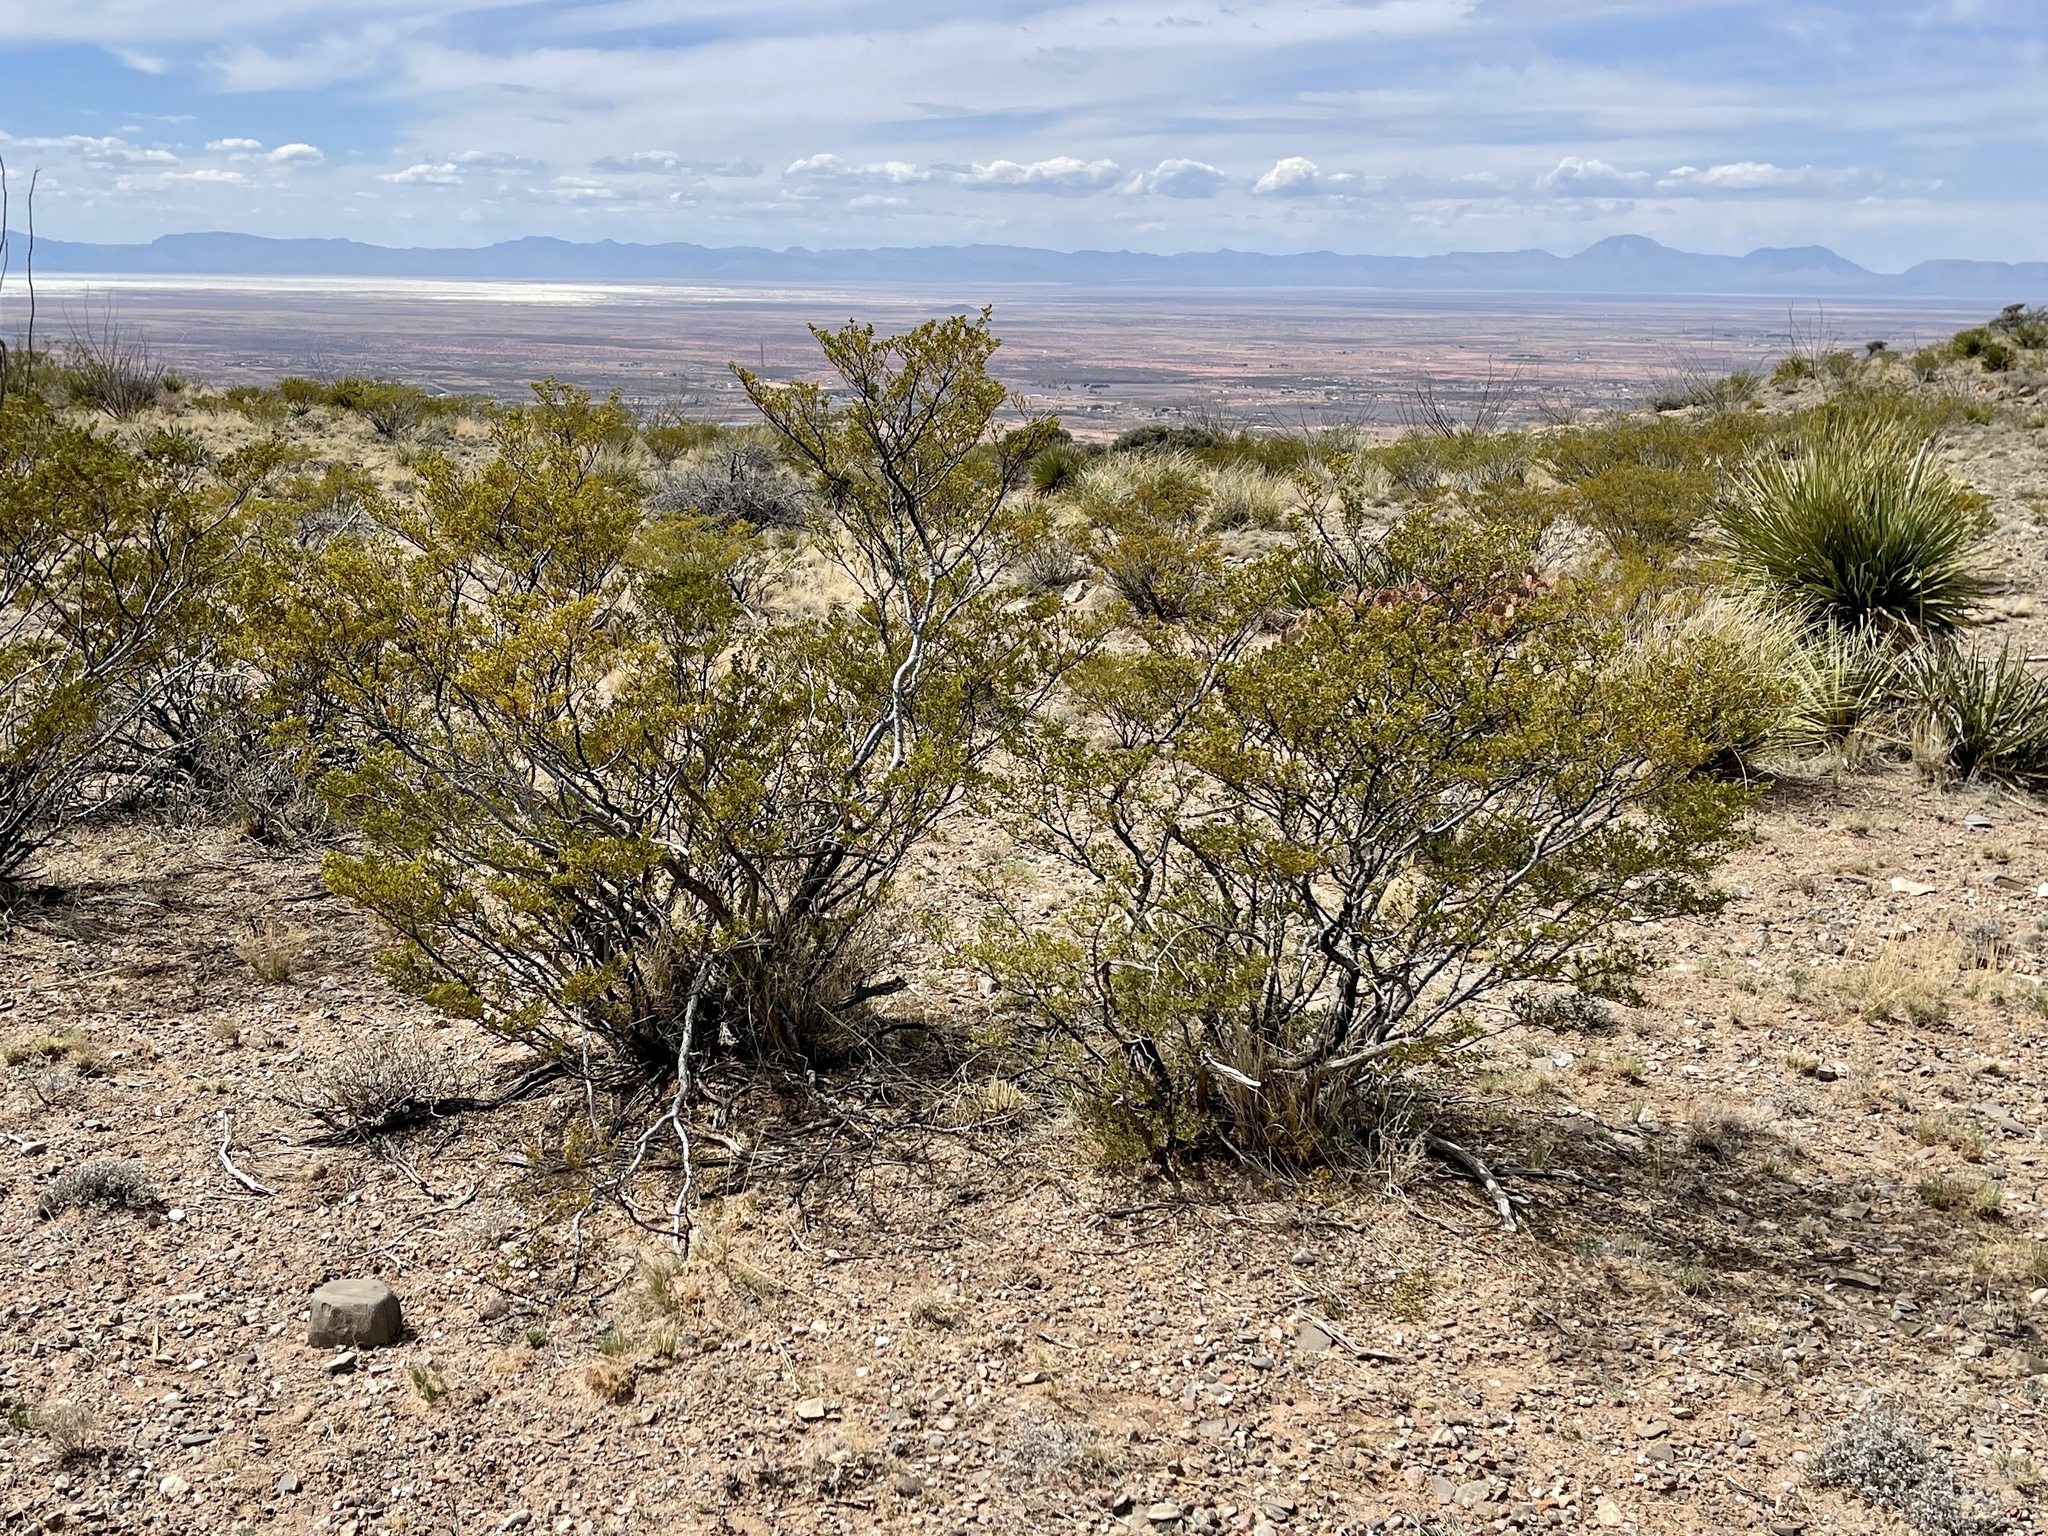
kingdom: Plantae
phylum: Tracheophyta
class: Magnoliopsida
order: Zygophyllales
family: Zygophyllaceae
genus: Larrea
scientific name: Larrea tridentata
